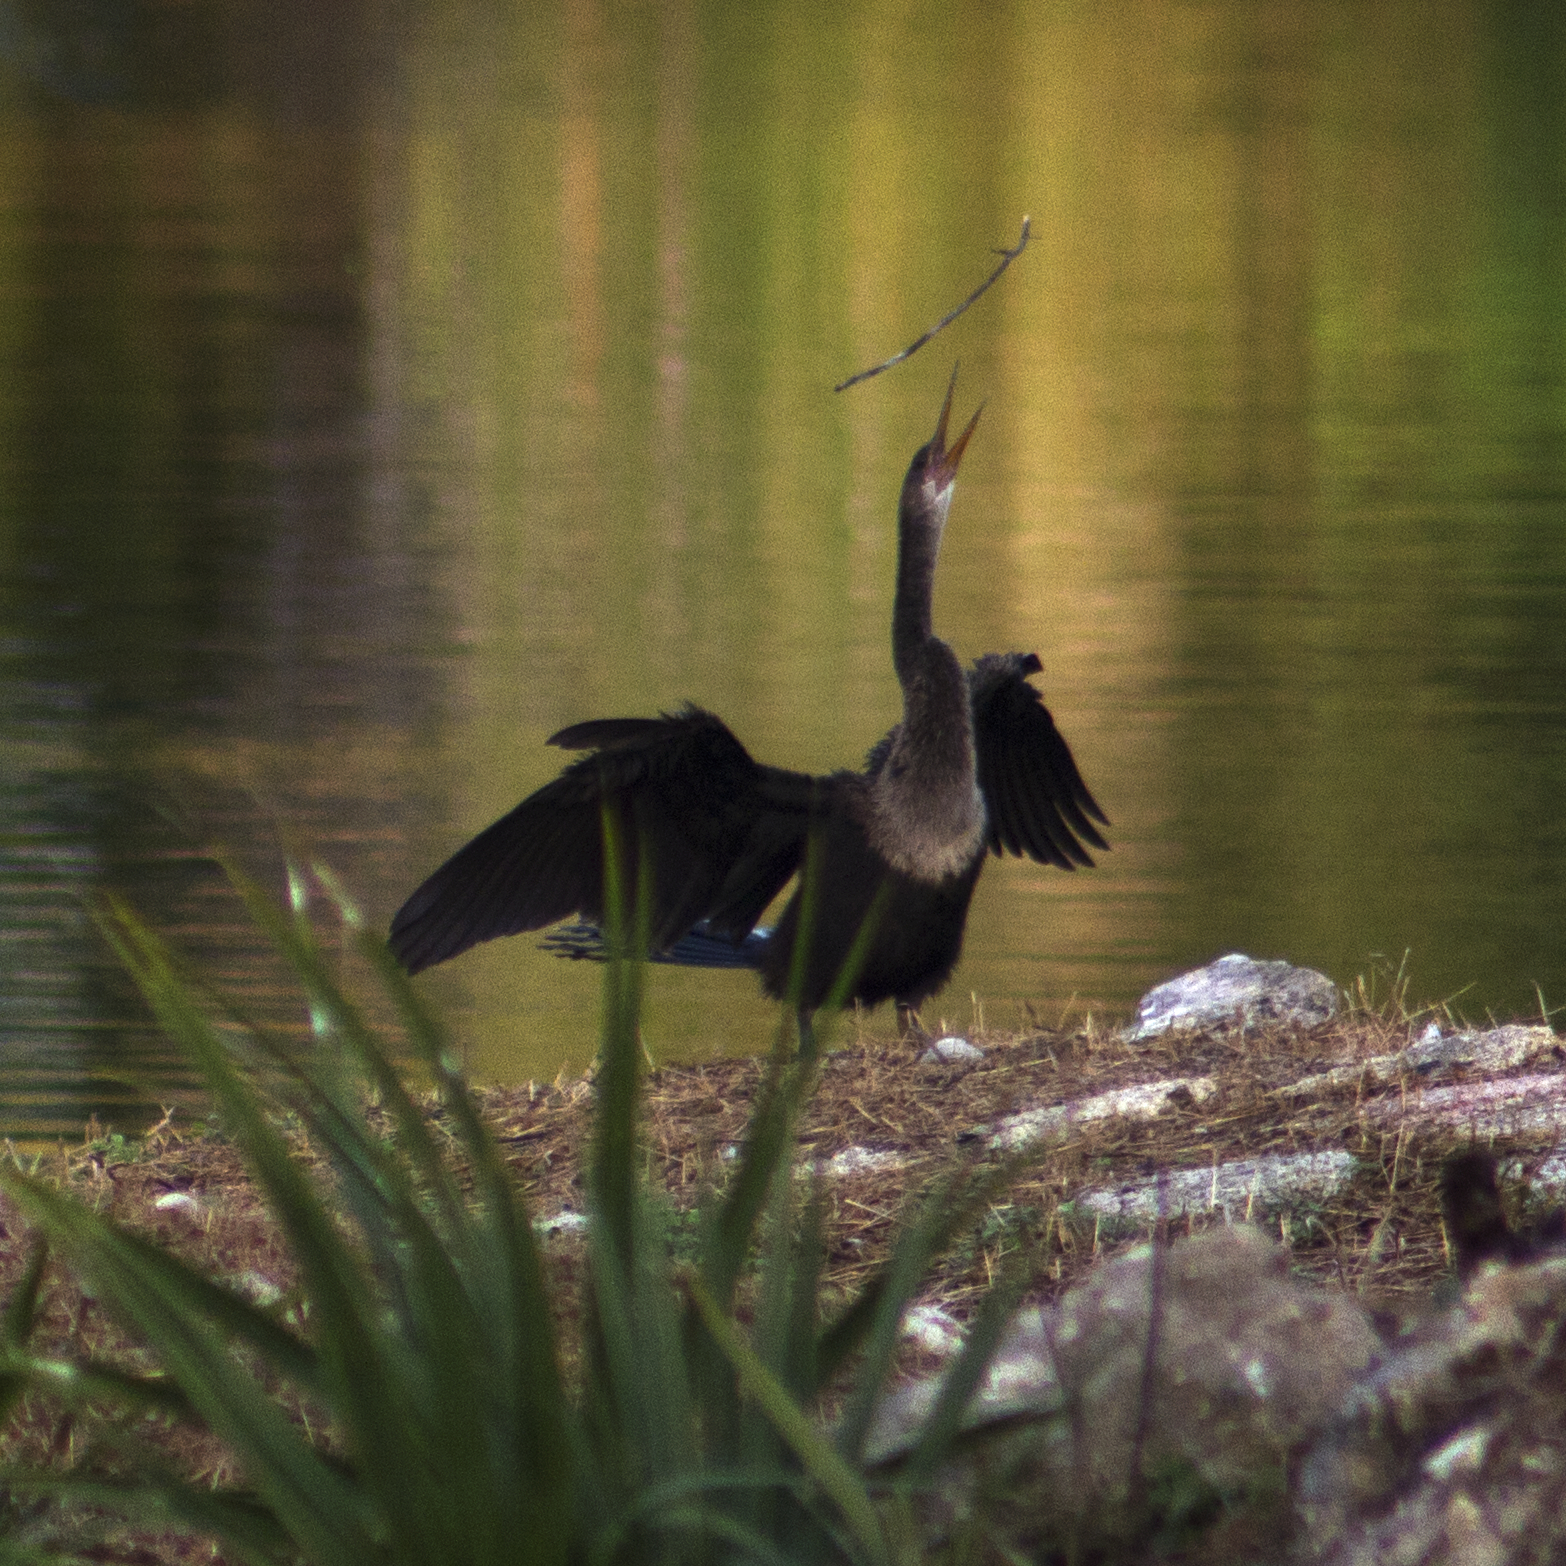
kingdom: Animalia
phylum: Chordata
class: Aves
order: Suliformes
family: Anhingidae
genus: Anhinga
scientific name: Anhinga anhinga
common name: Anhinga
